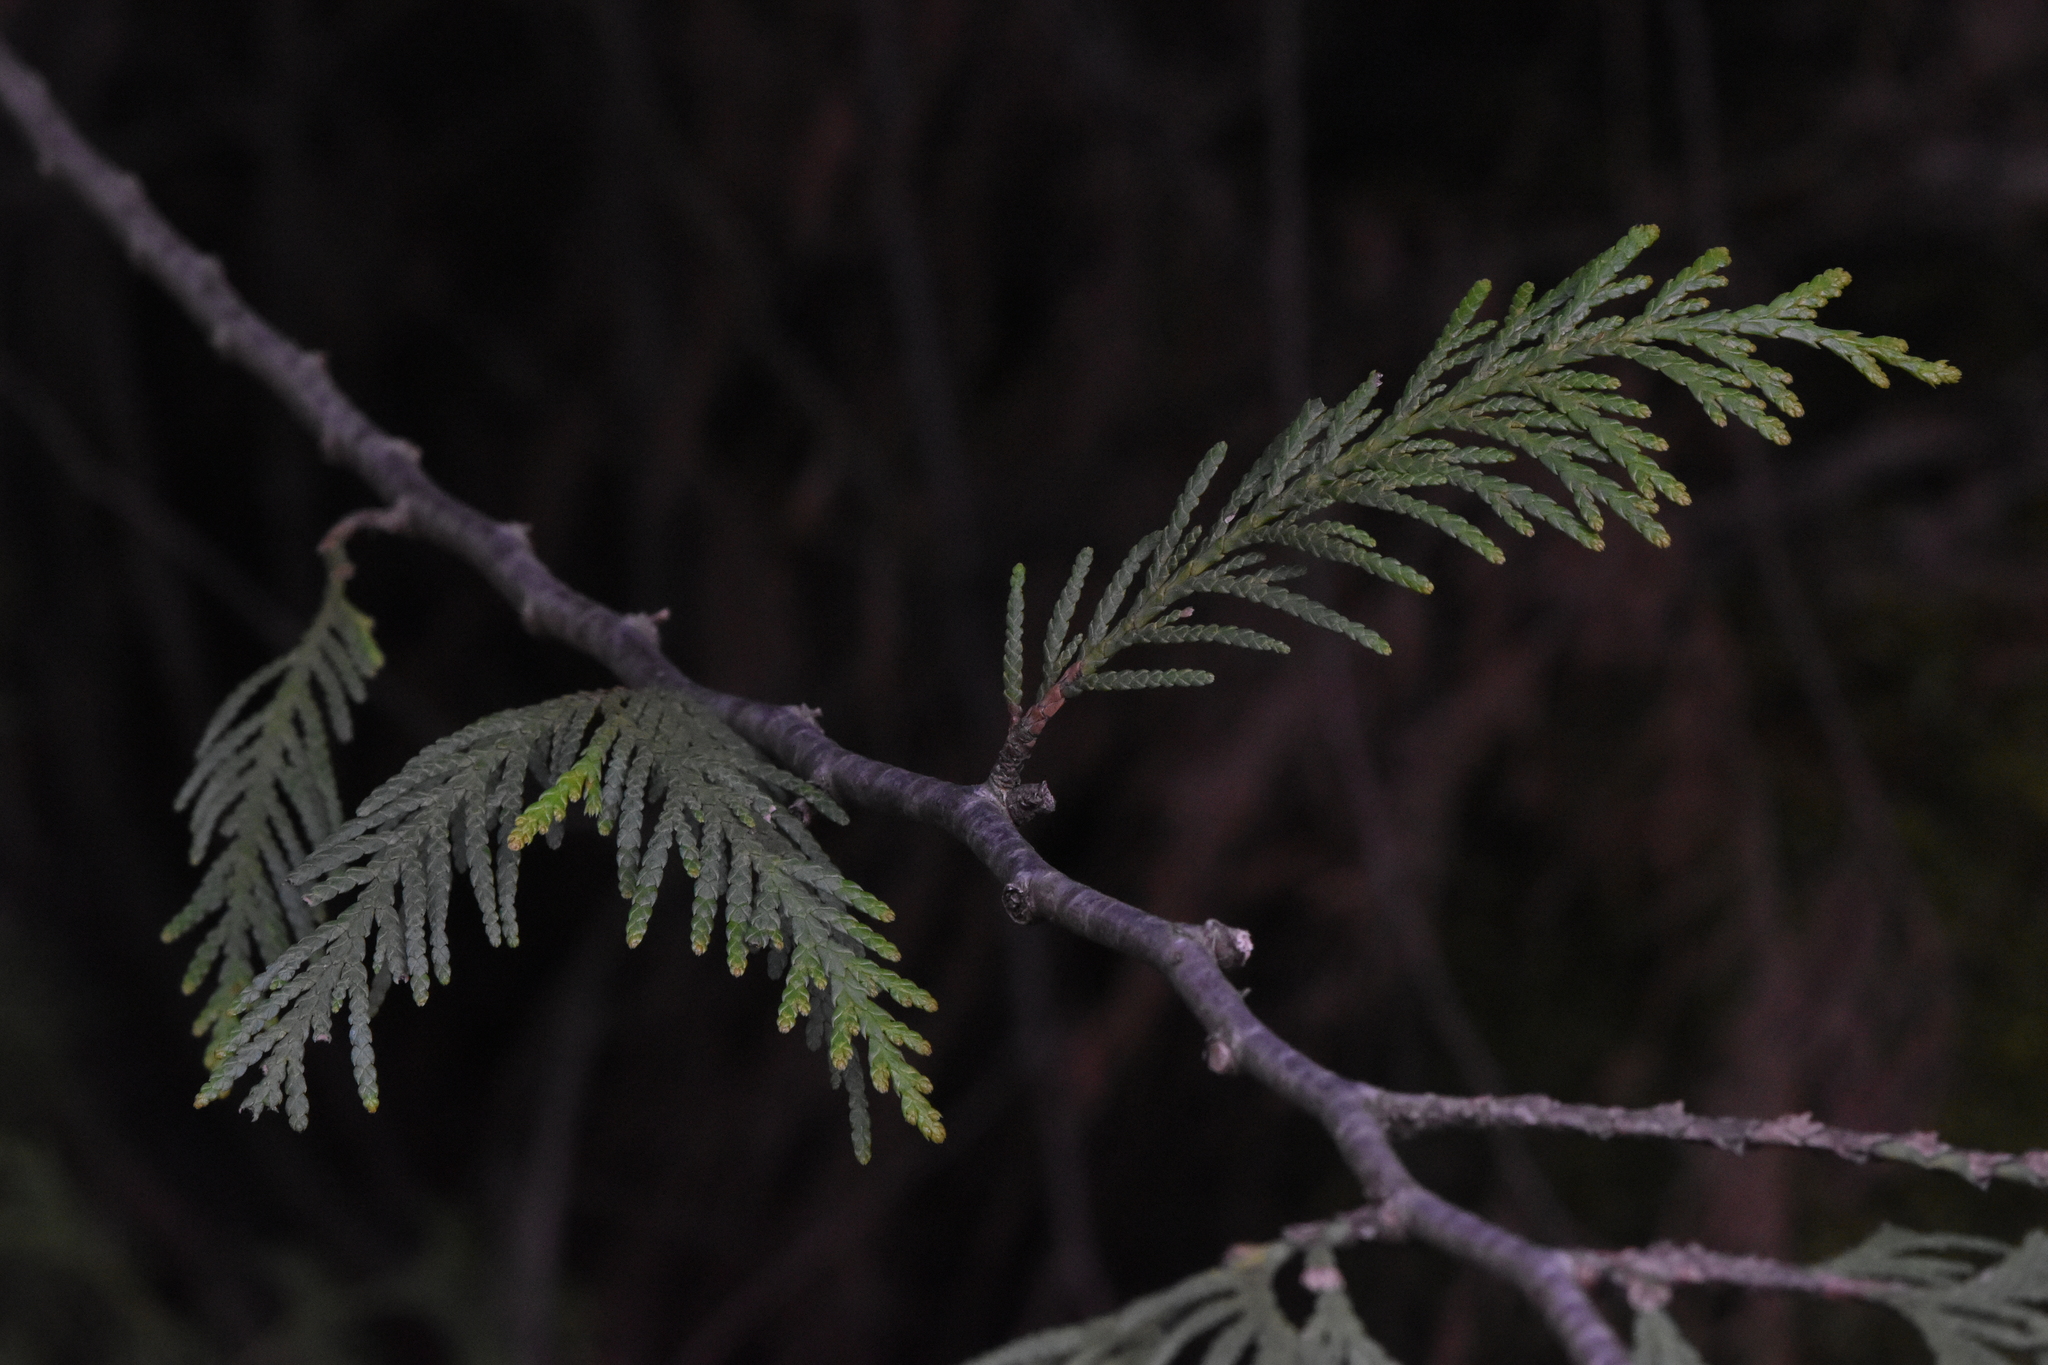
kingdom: Plantae
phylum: Tracheophyta
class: Pinopsida
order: Pinales
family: Cupressaceae
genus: Thuja
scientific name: Thuja plicata
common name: Western red-cedar
